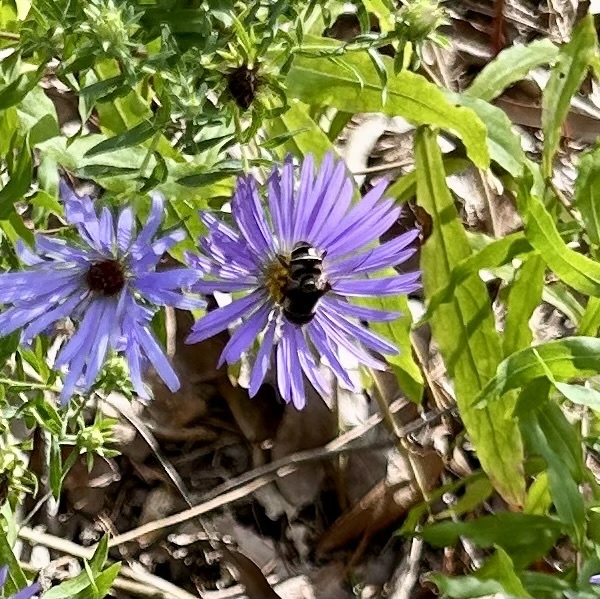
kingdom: Animalia
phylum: Arthropoda
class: Insecta
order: Diptera
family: Syrphidae
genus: Eristalis
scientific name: Eristalis dimidiata
